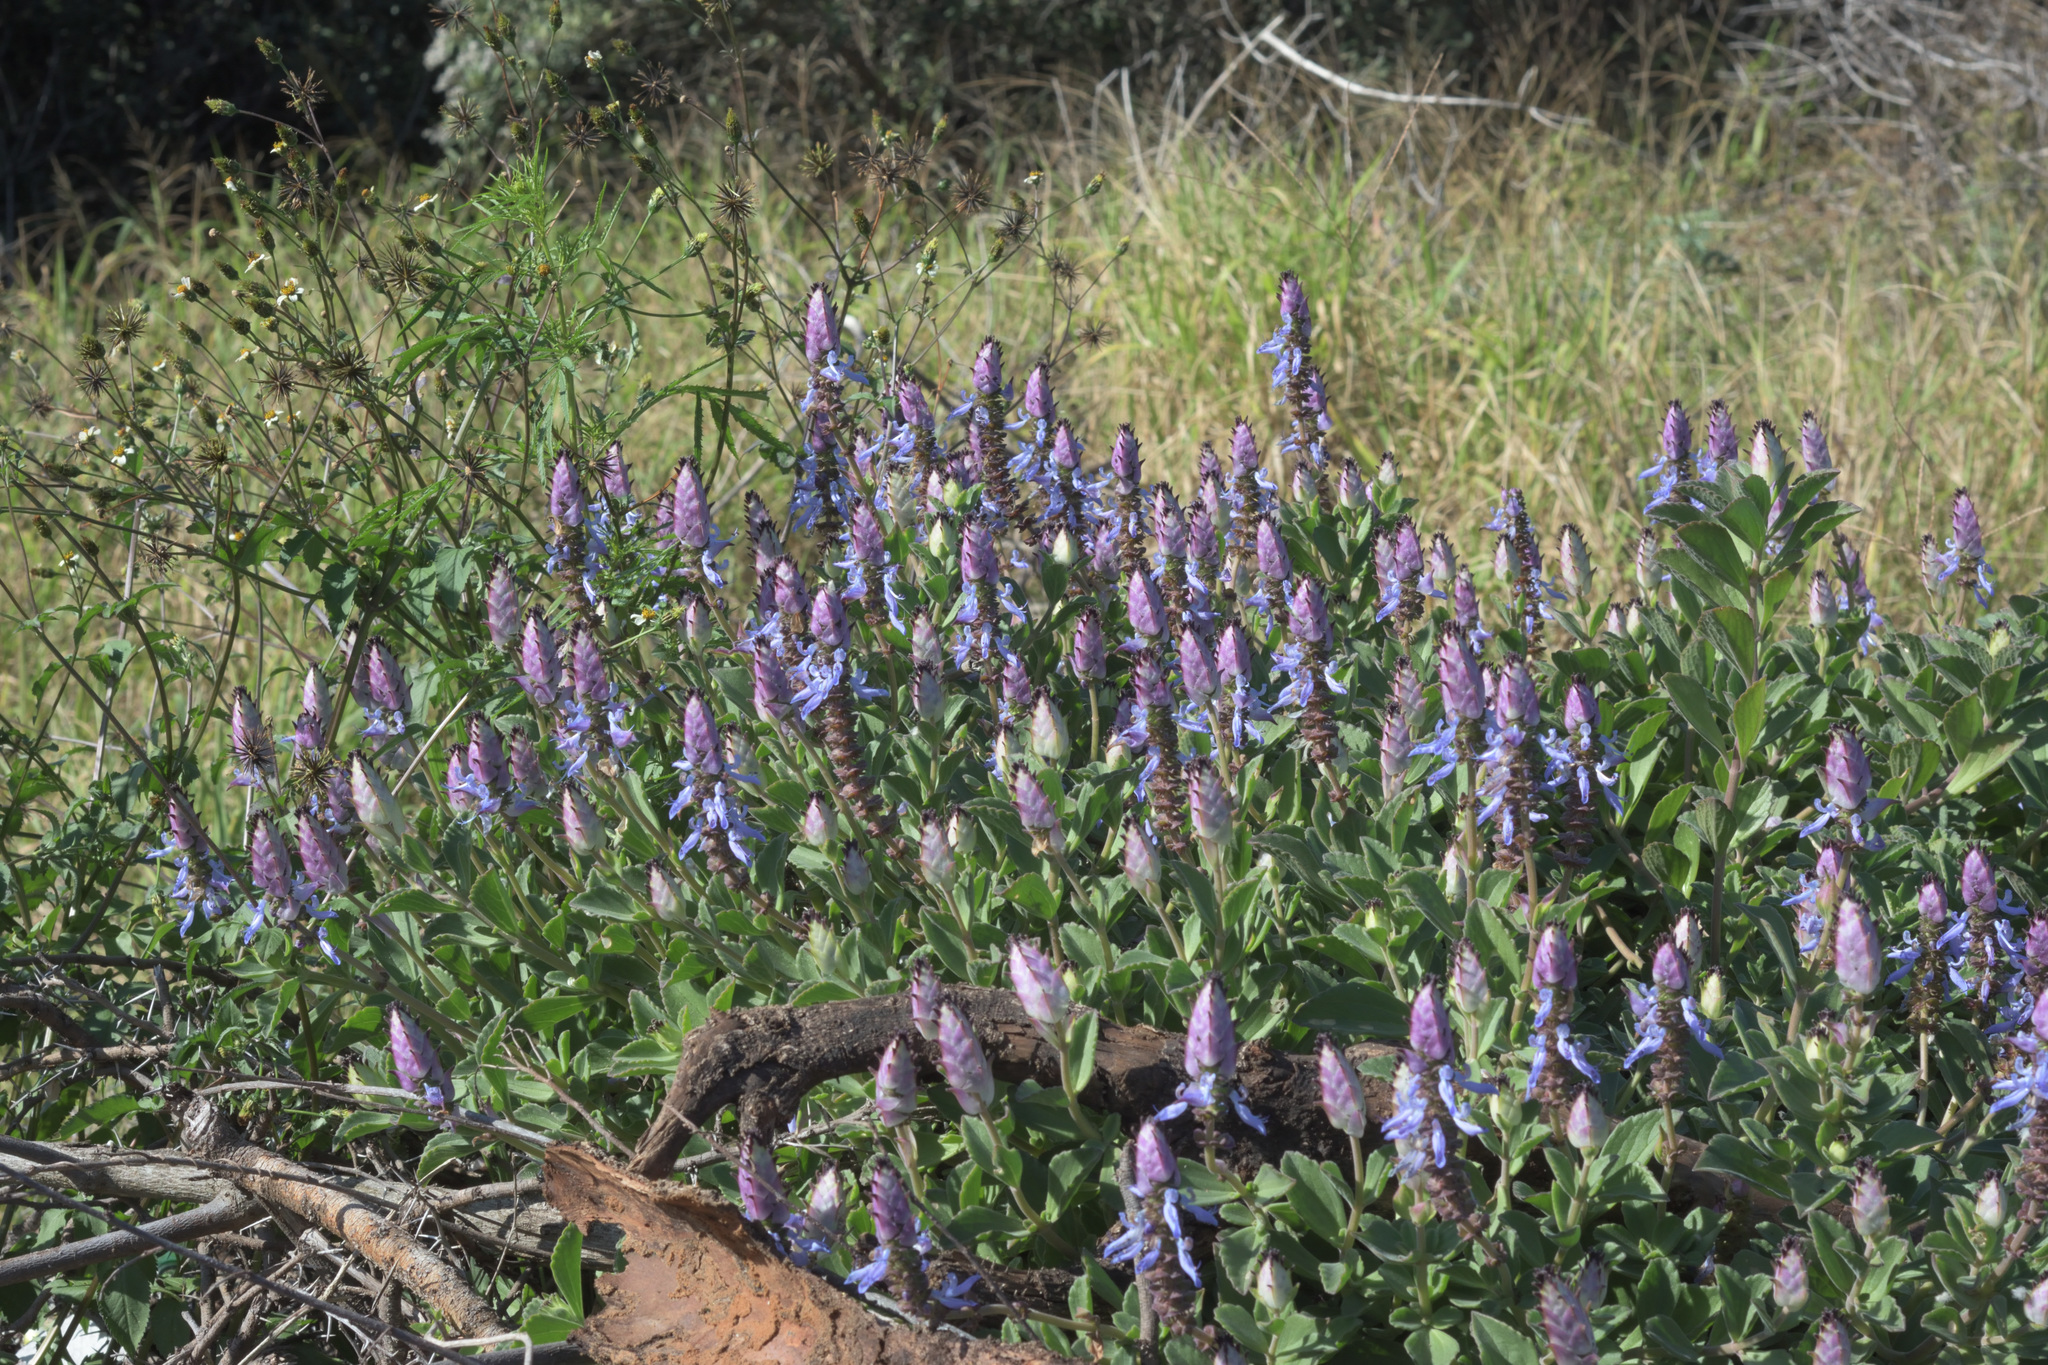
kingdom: Plantae
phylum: Tracheophyta
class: Magnoliopsida
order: Lamiales
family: Lamiaceae
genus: Coleus
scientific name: Coleus neochilus
